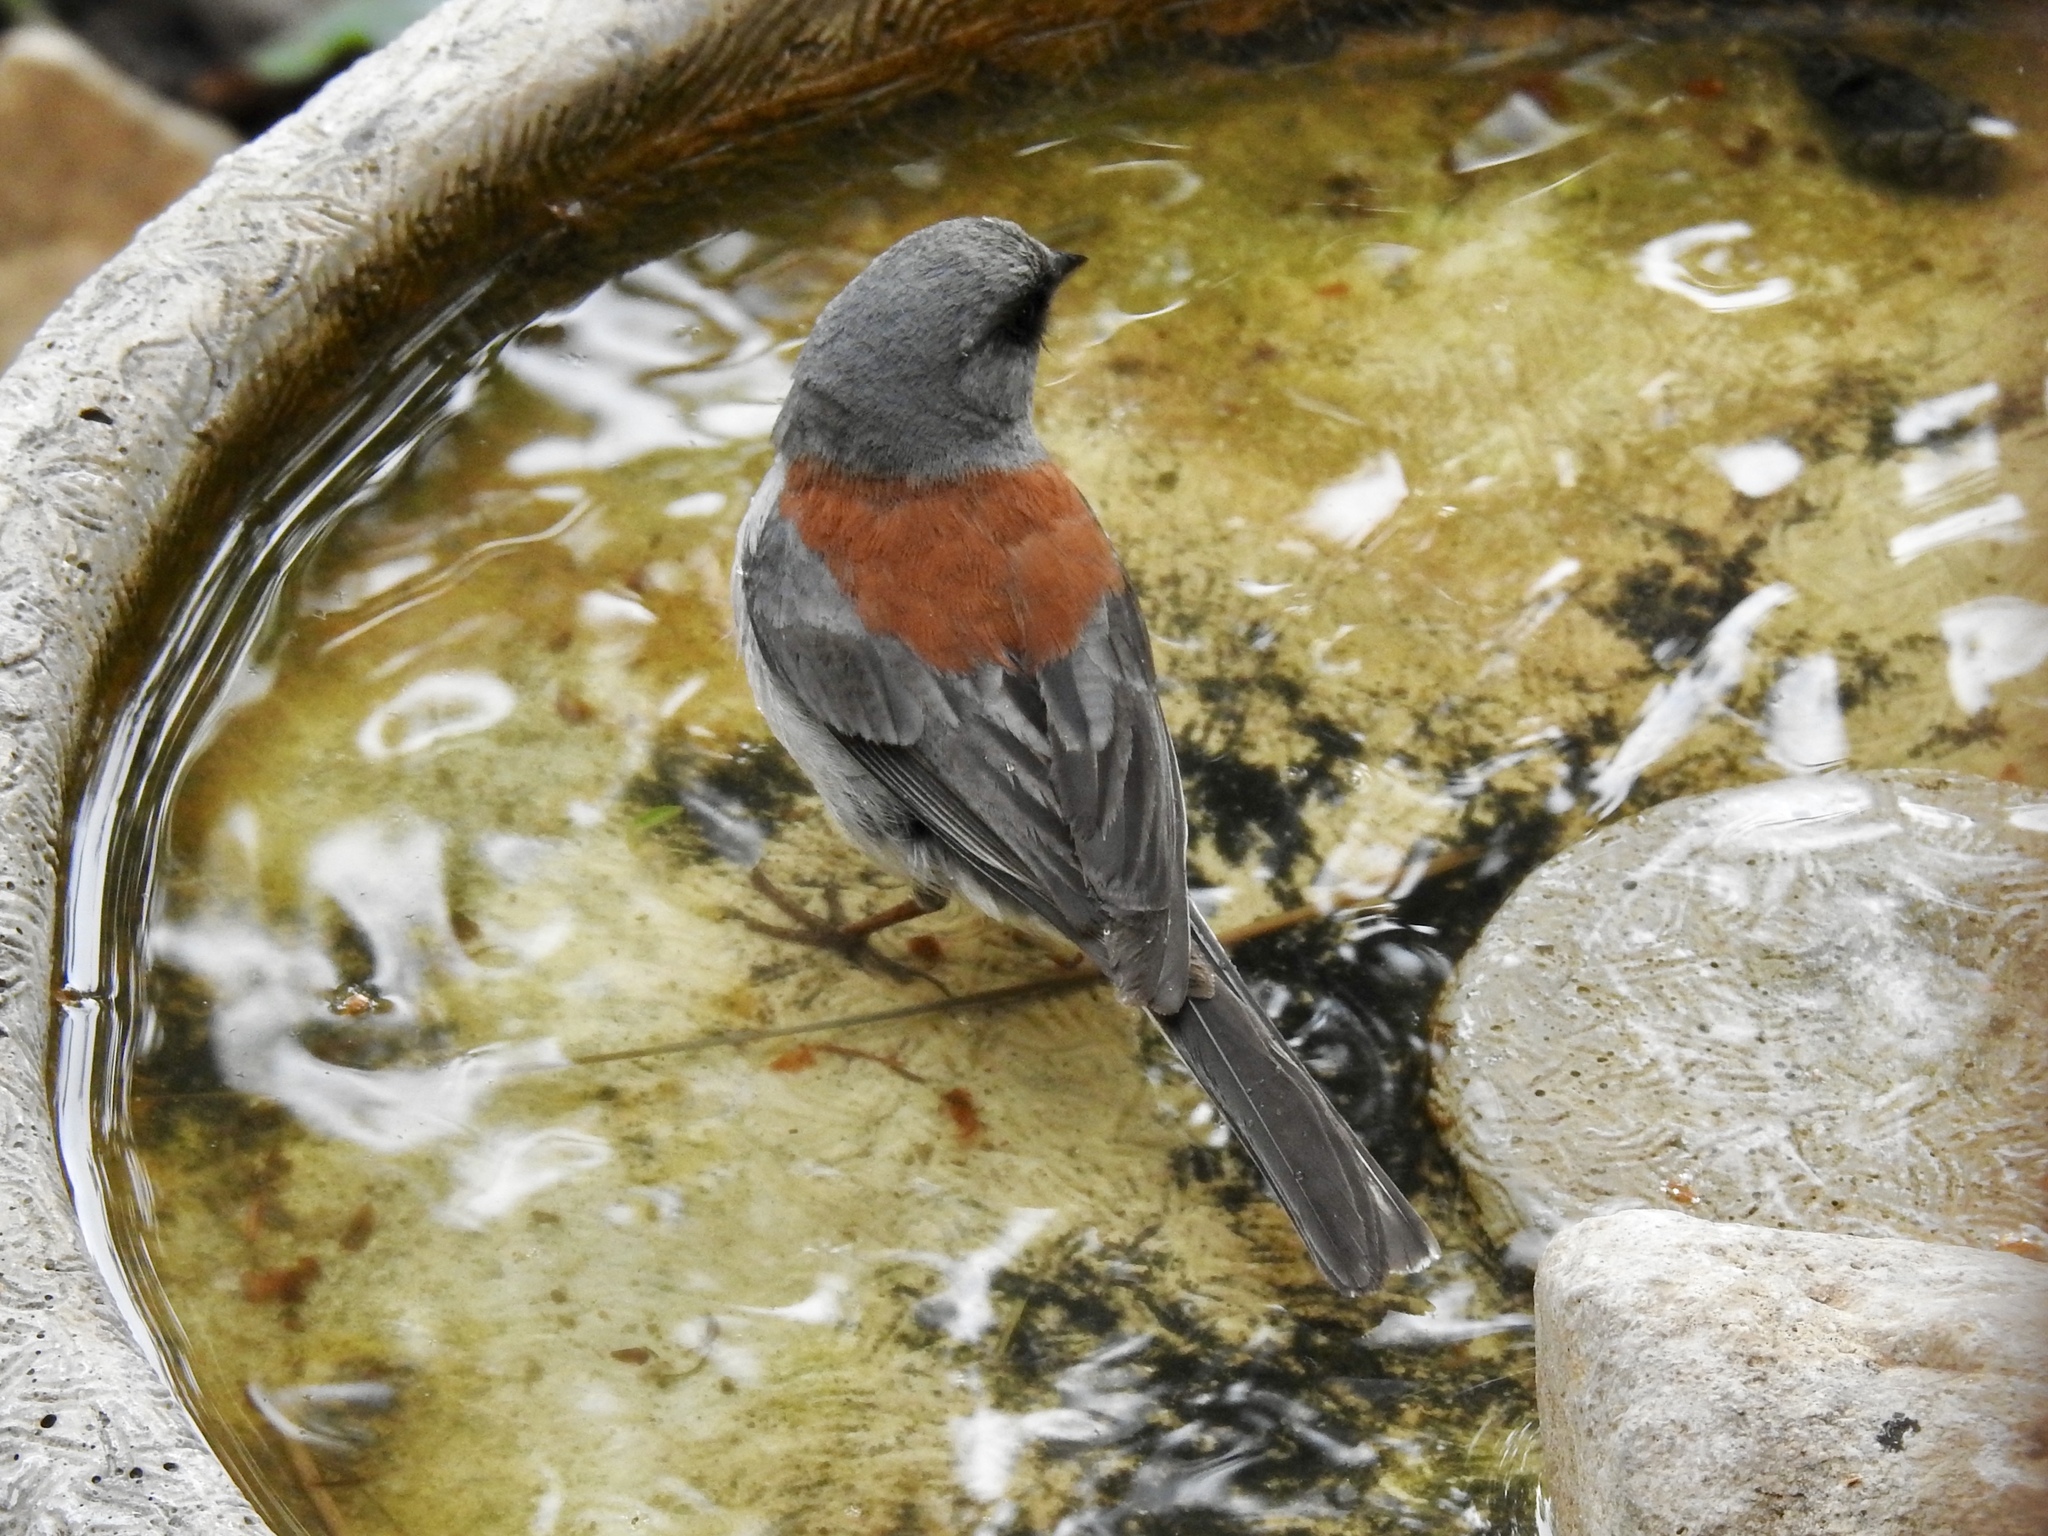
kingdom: Animalia
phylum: Chordata
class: Aves
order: Passeriformes
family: Passerellidae
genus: Junco
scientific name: Junco hyemalis
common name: Dark-eyed junco
